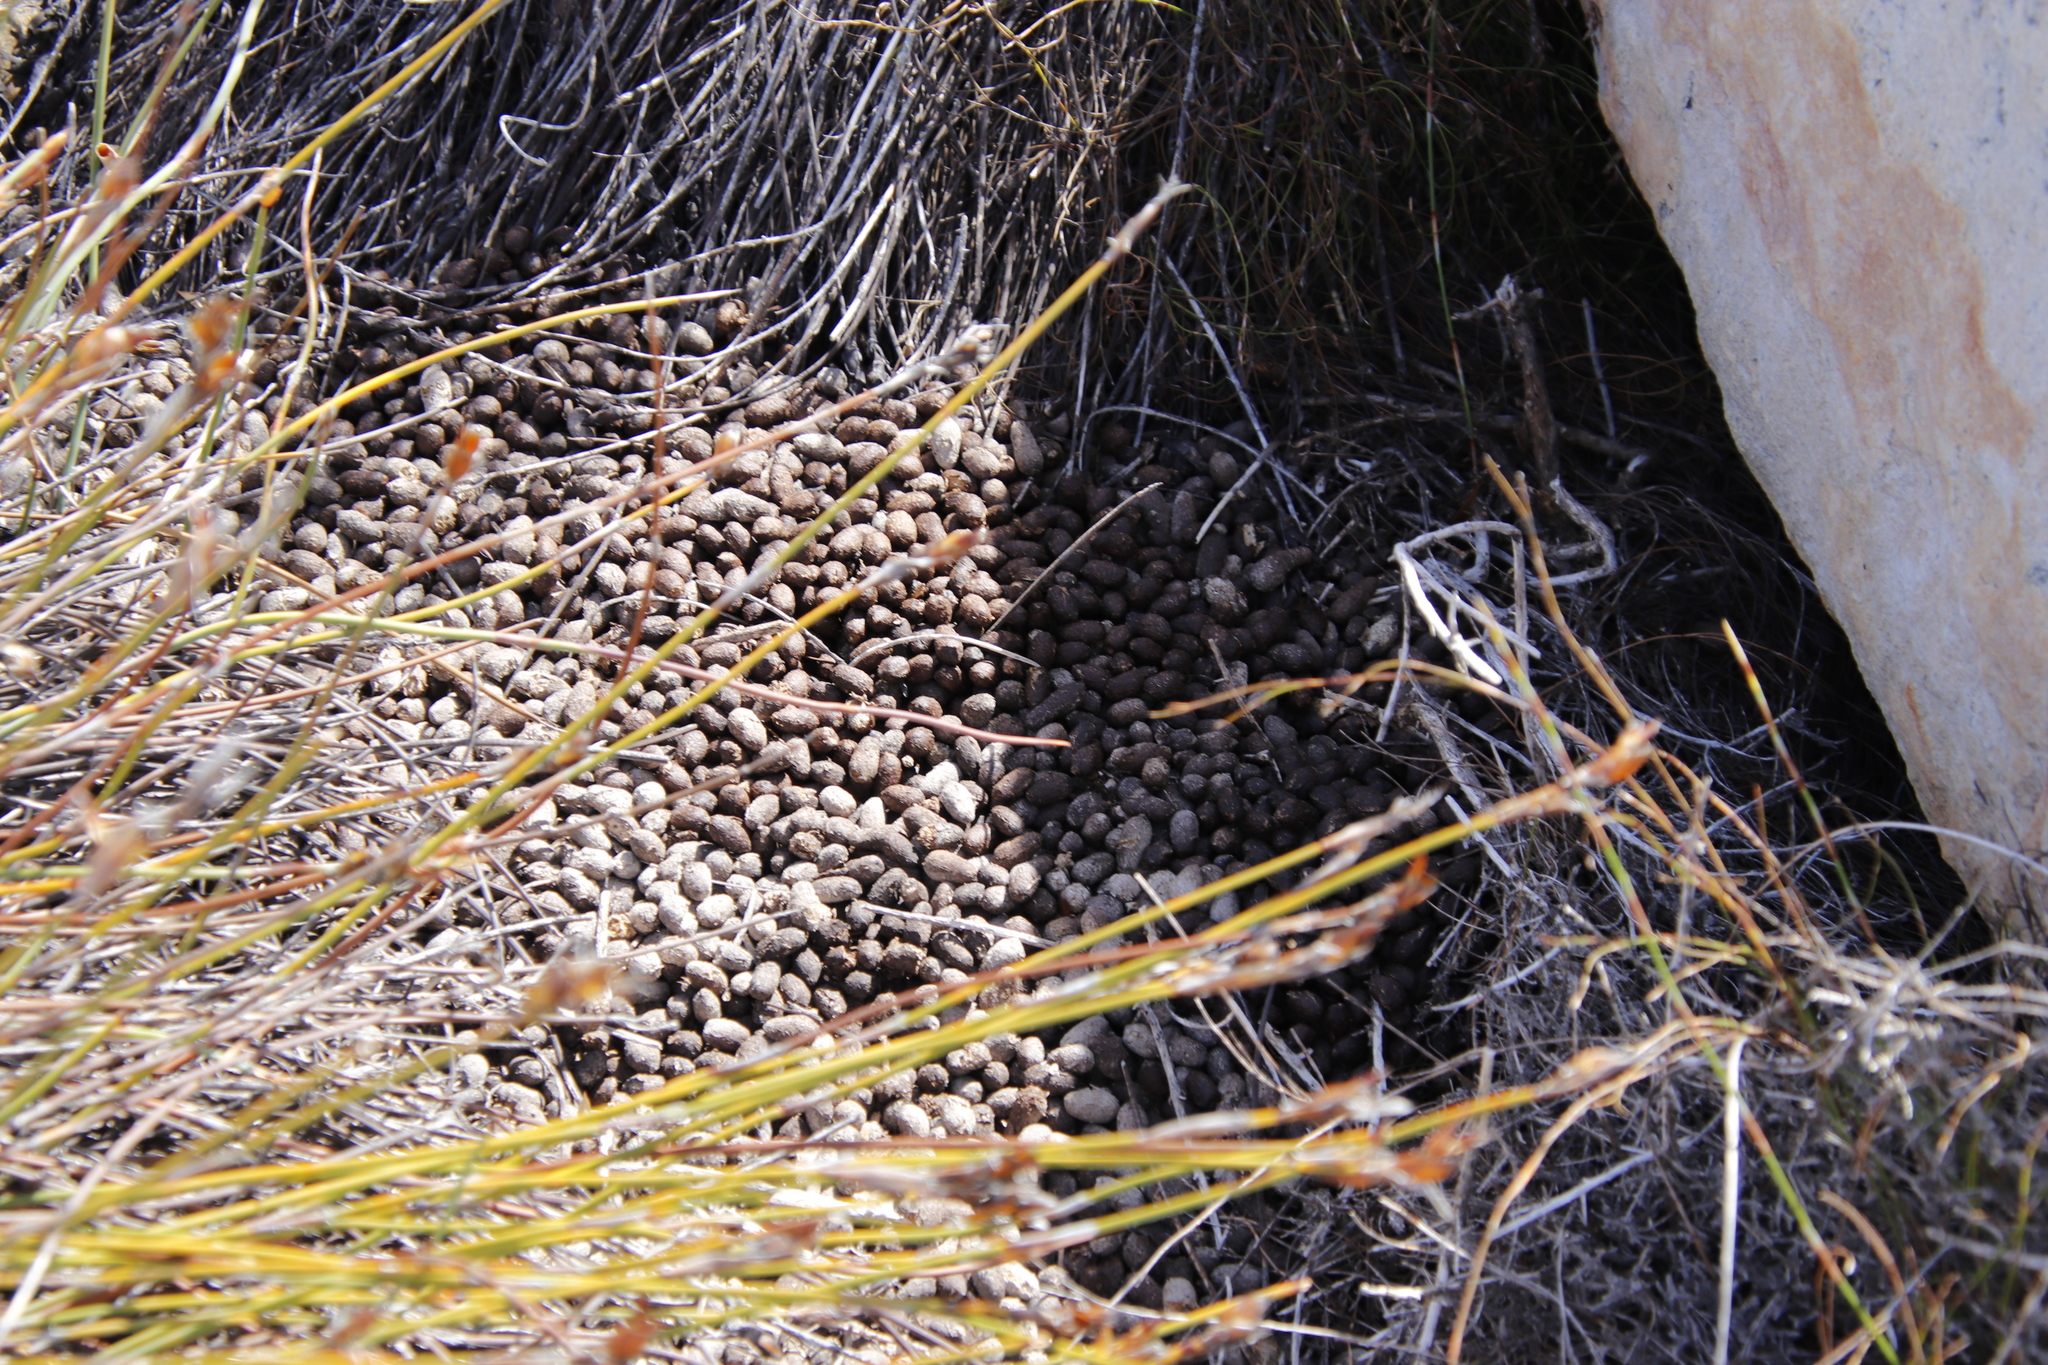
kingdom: Animalia
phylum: Chordata
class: Mammalia
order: Artiodactyla
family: Bovidae
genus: Oreotragus
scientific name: Oreotragus oreotragus
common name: Klipspringer
